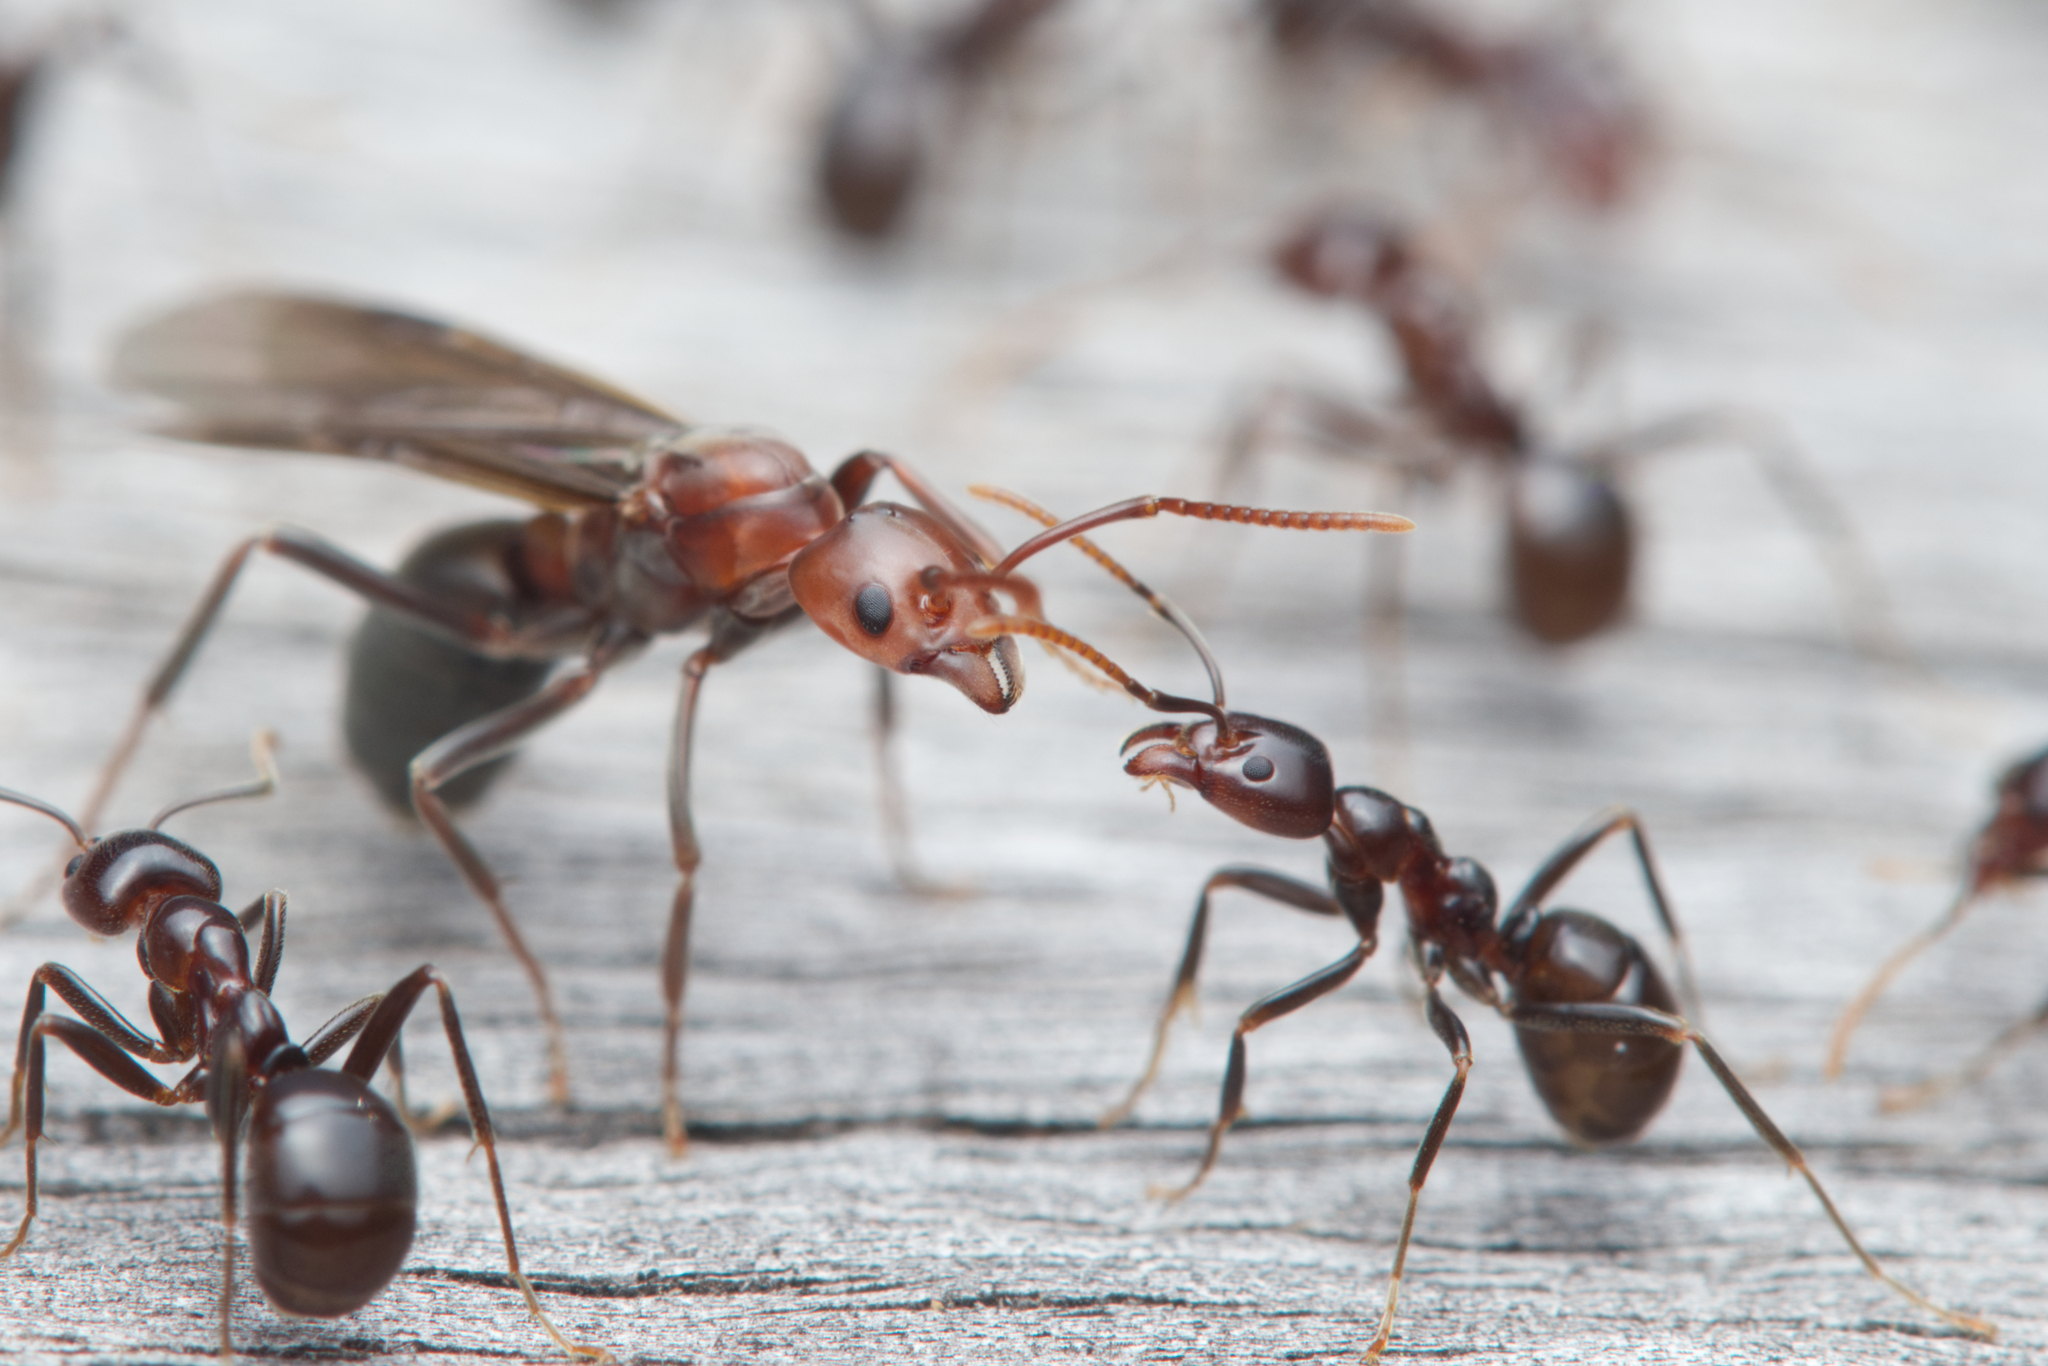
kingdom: Animalia
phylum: Arthropoda
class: Insecta
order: Hymenoptera
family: Formicidae
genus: Papyrius
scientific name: Papyrius nitidus
